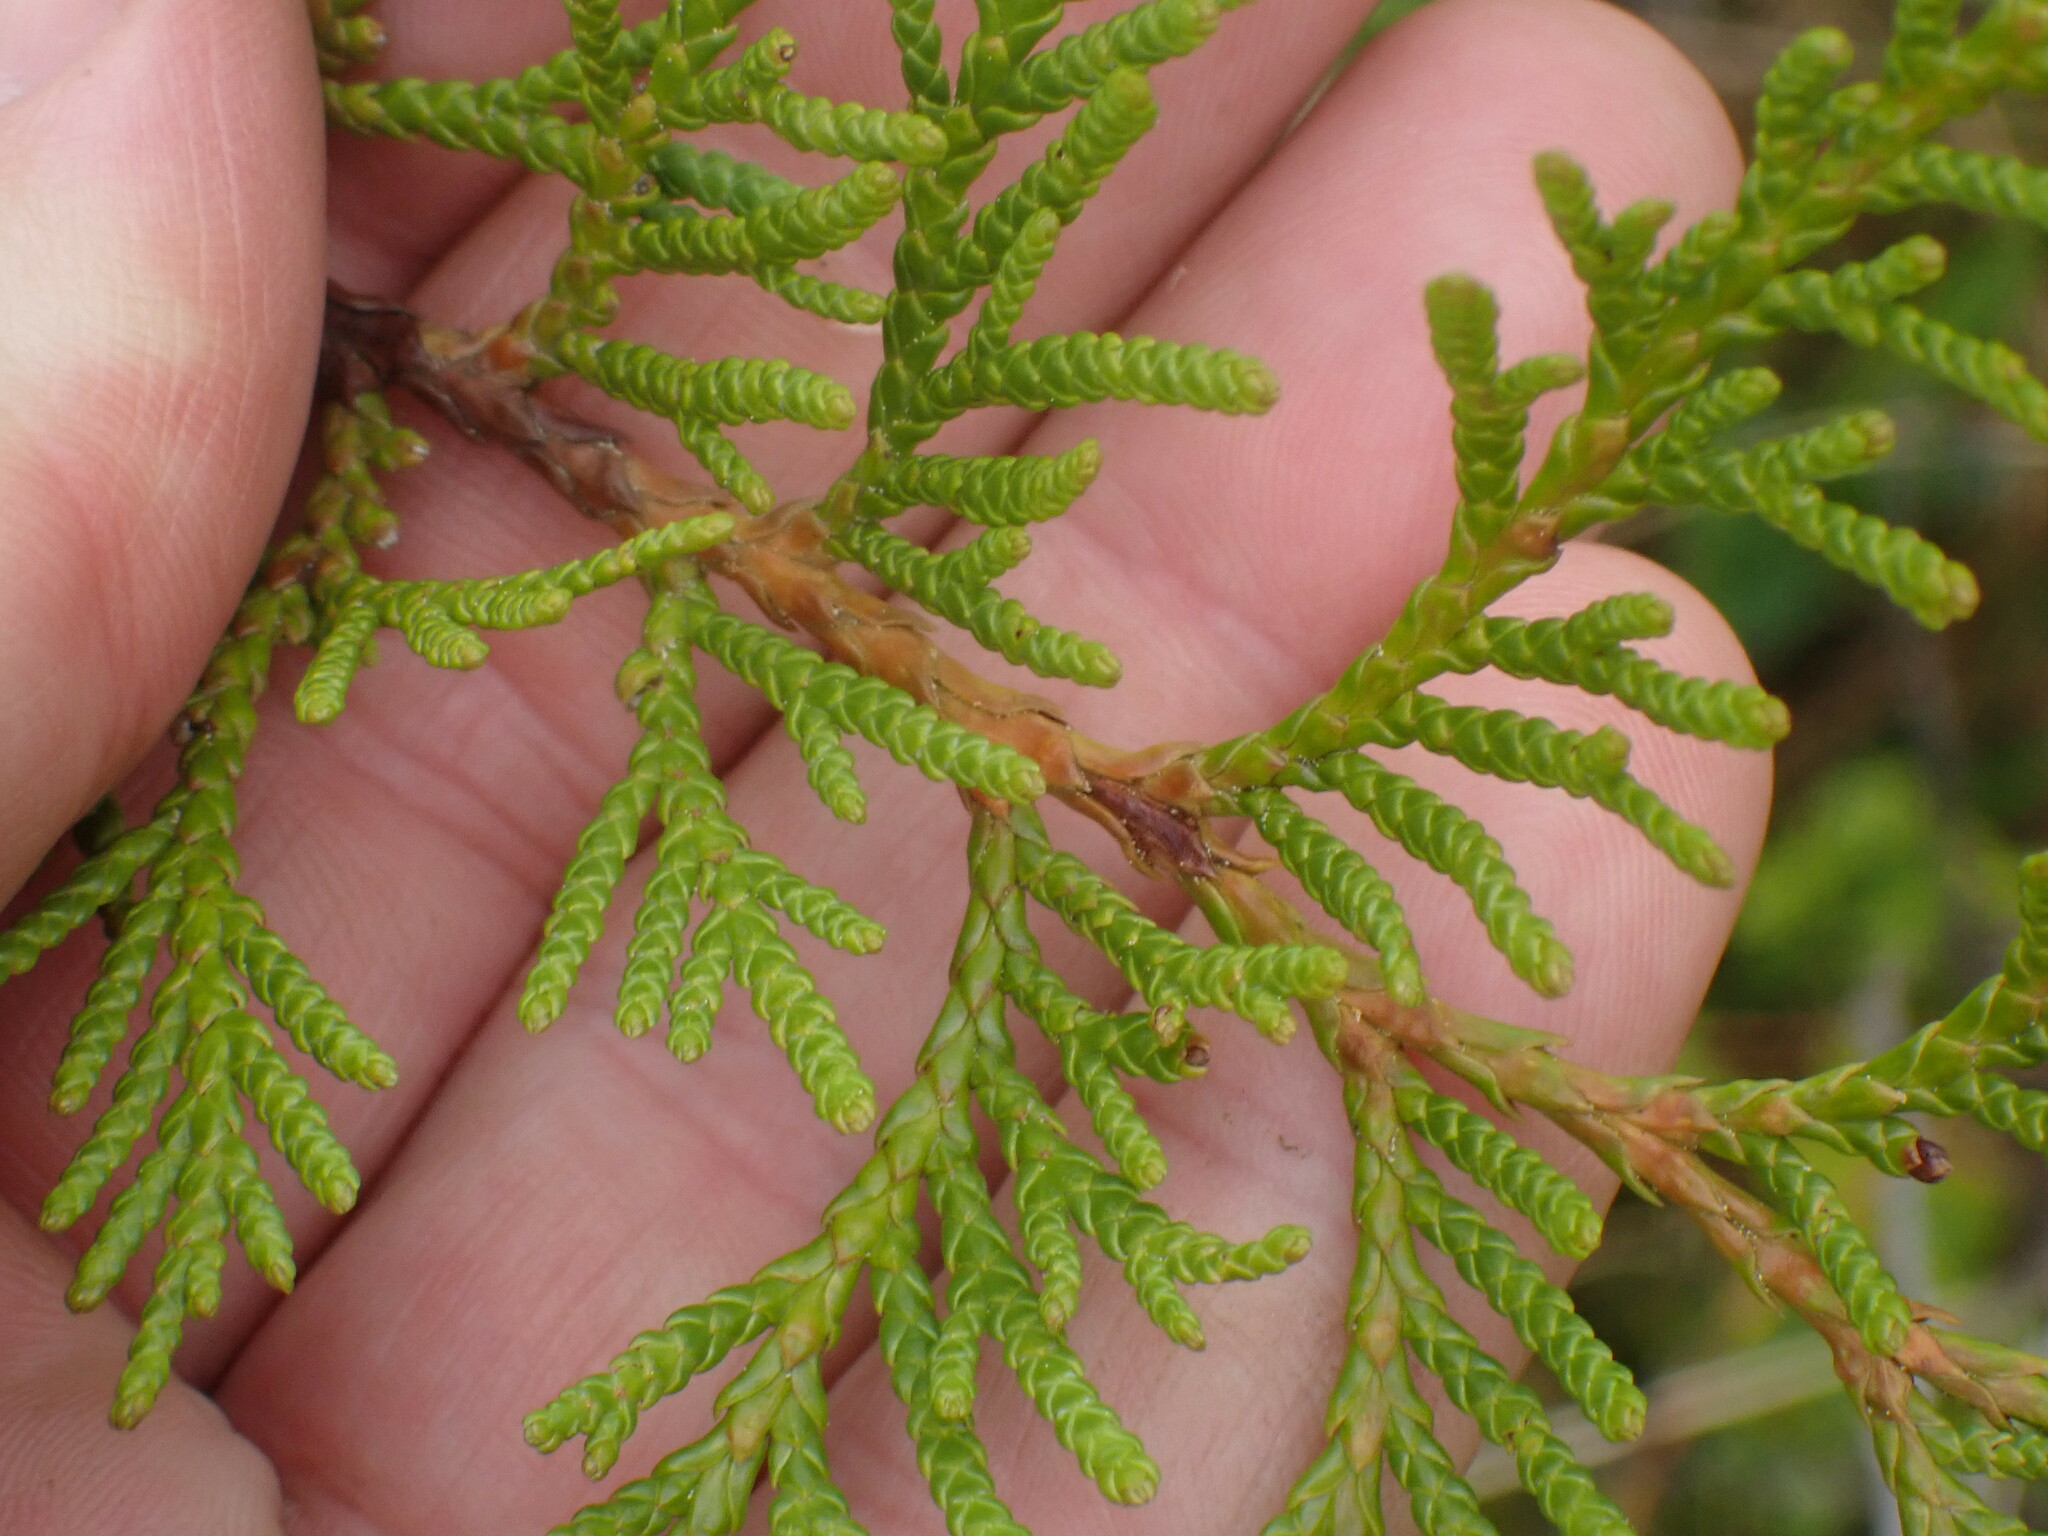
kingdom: Plantae
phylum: Tracheophyta
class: Pinopsida
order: Pinales
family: Cupressaceae
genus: Thuja
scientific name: Thuja plicata
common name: Western red-cedar
